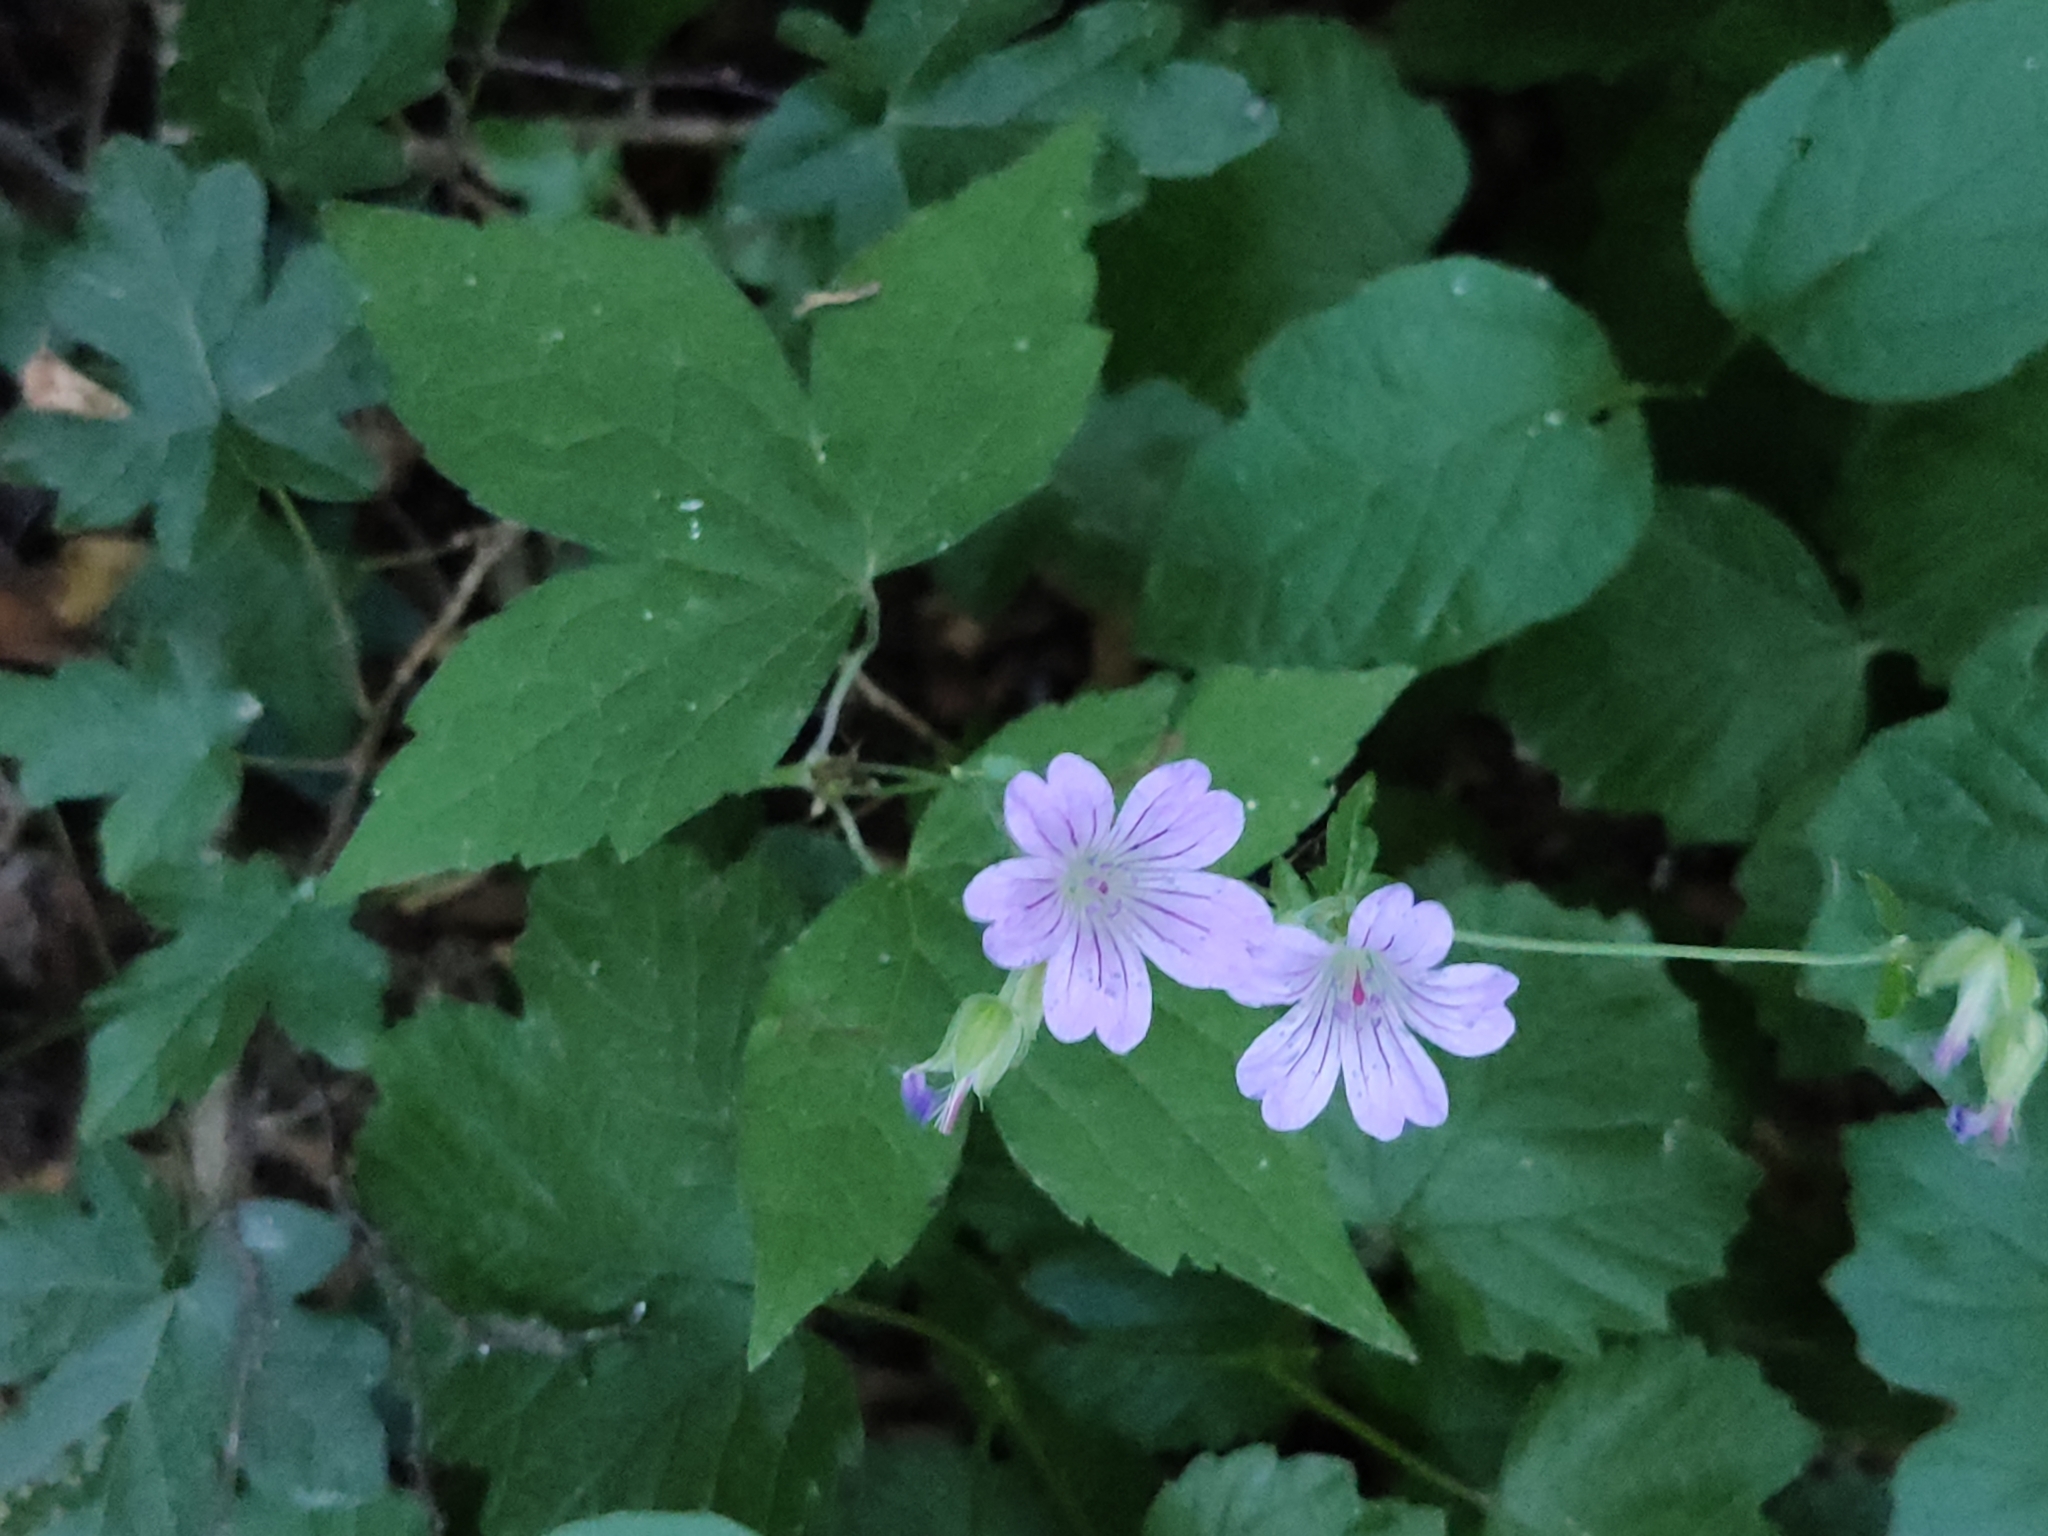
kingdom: Plantae
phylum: Tracheophyta
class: Magnoliopsida
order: Geraniales
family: Geraniaceae
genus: Geranium
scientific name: Geranium nodosum
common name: Knotted crane's-bill
